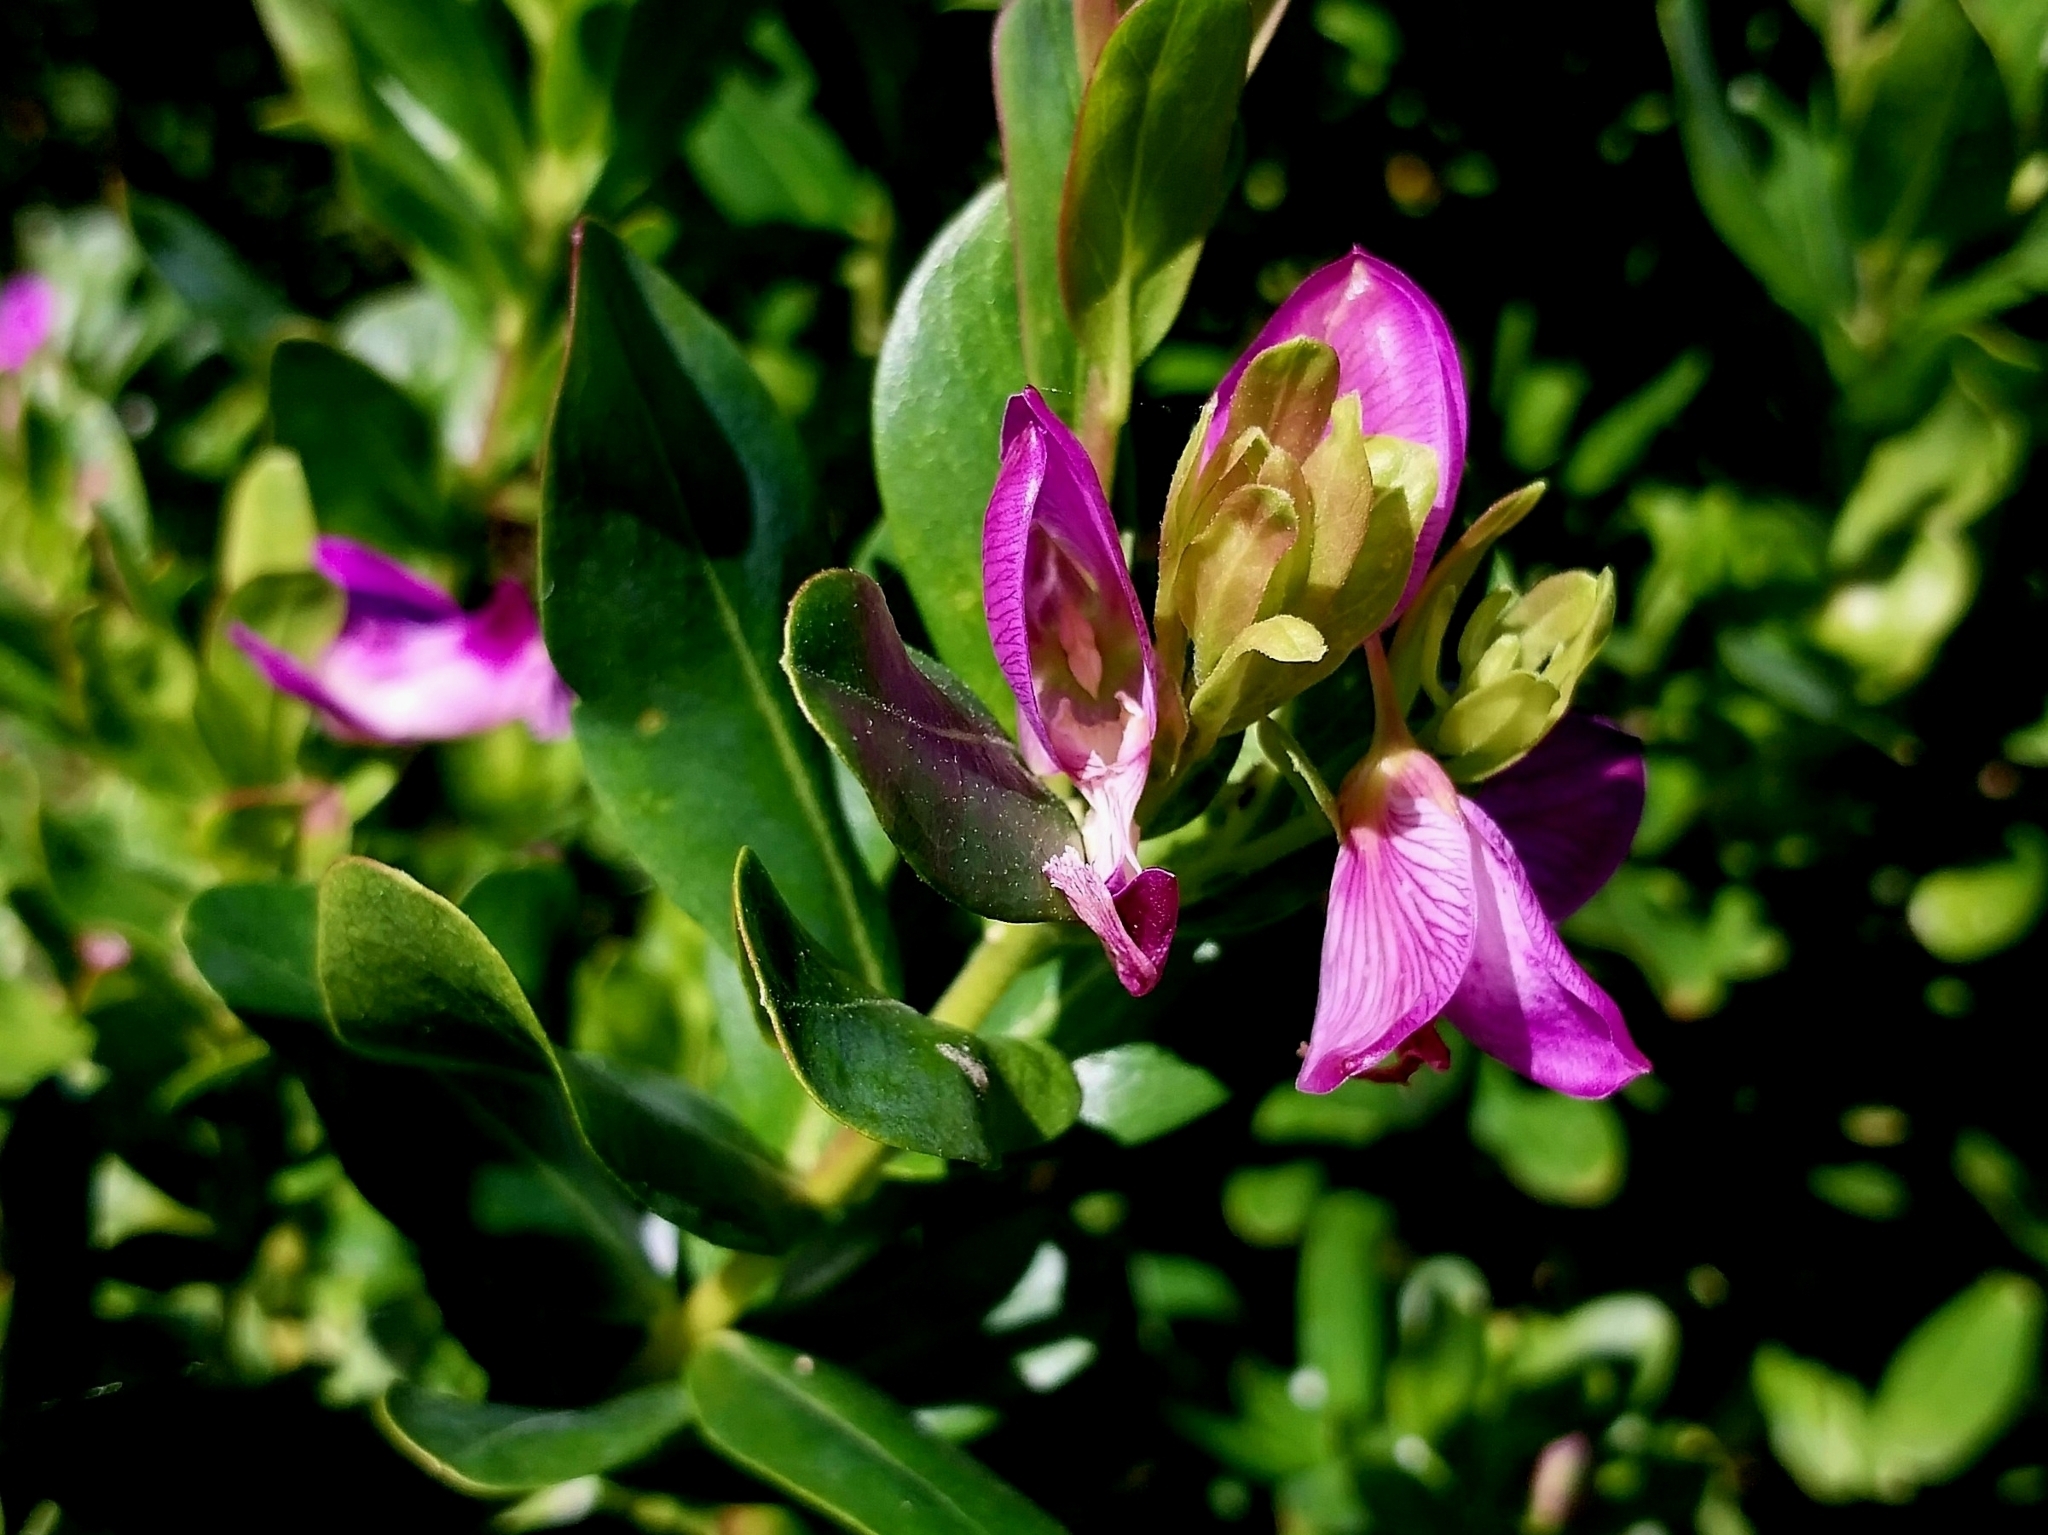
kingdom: Plantae
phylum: Tracheophyta
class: Magnoliopsida
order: Fabales
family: Polygalaceae
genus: Polygala
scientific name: Polygala myrtifolia
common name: Myrtle-leaf milkwort
